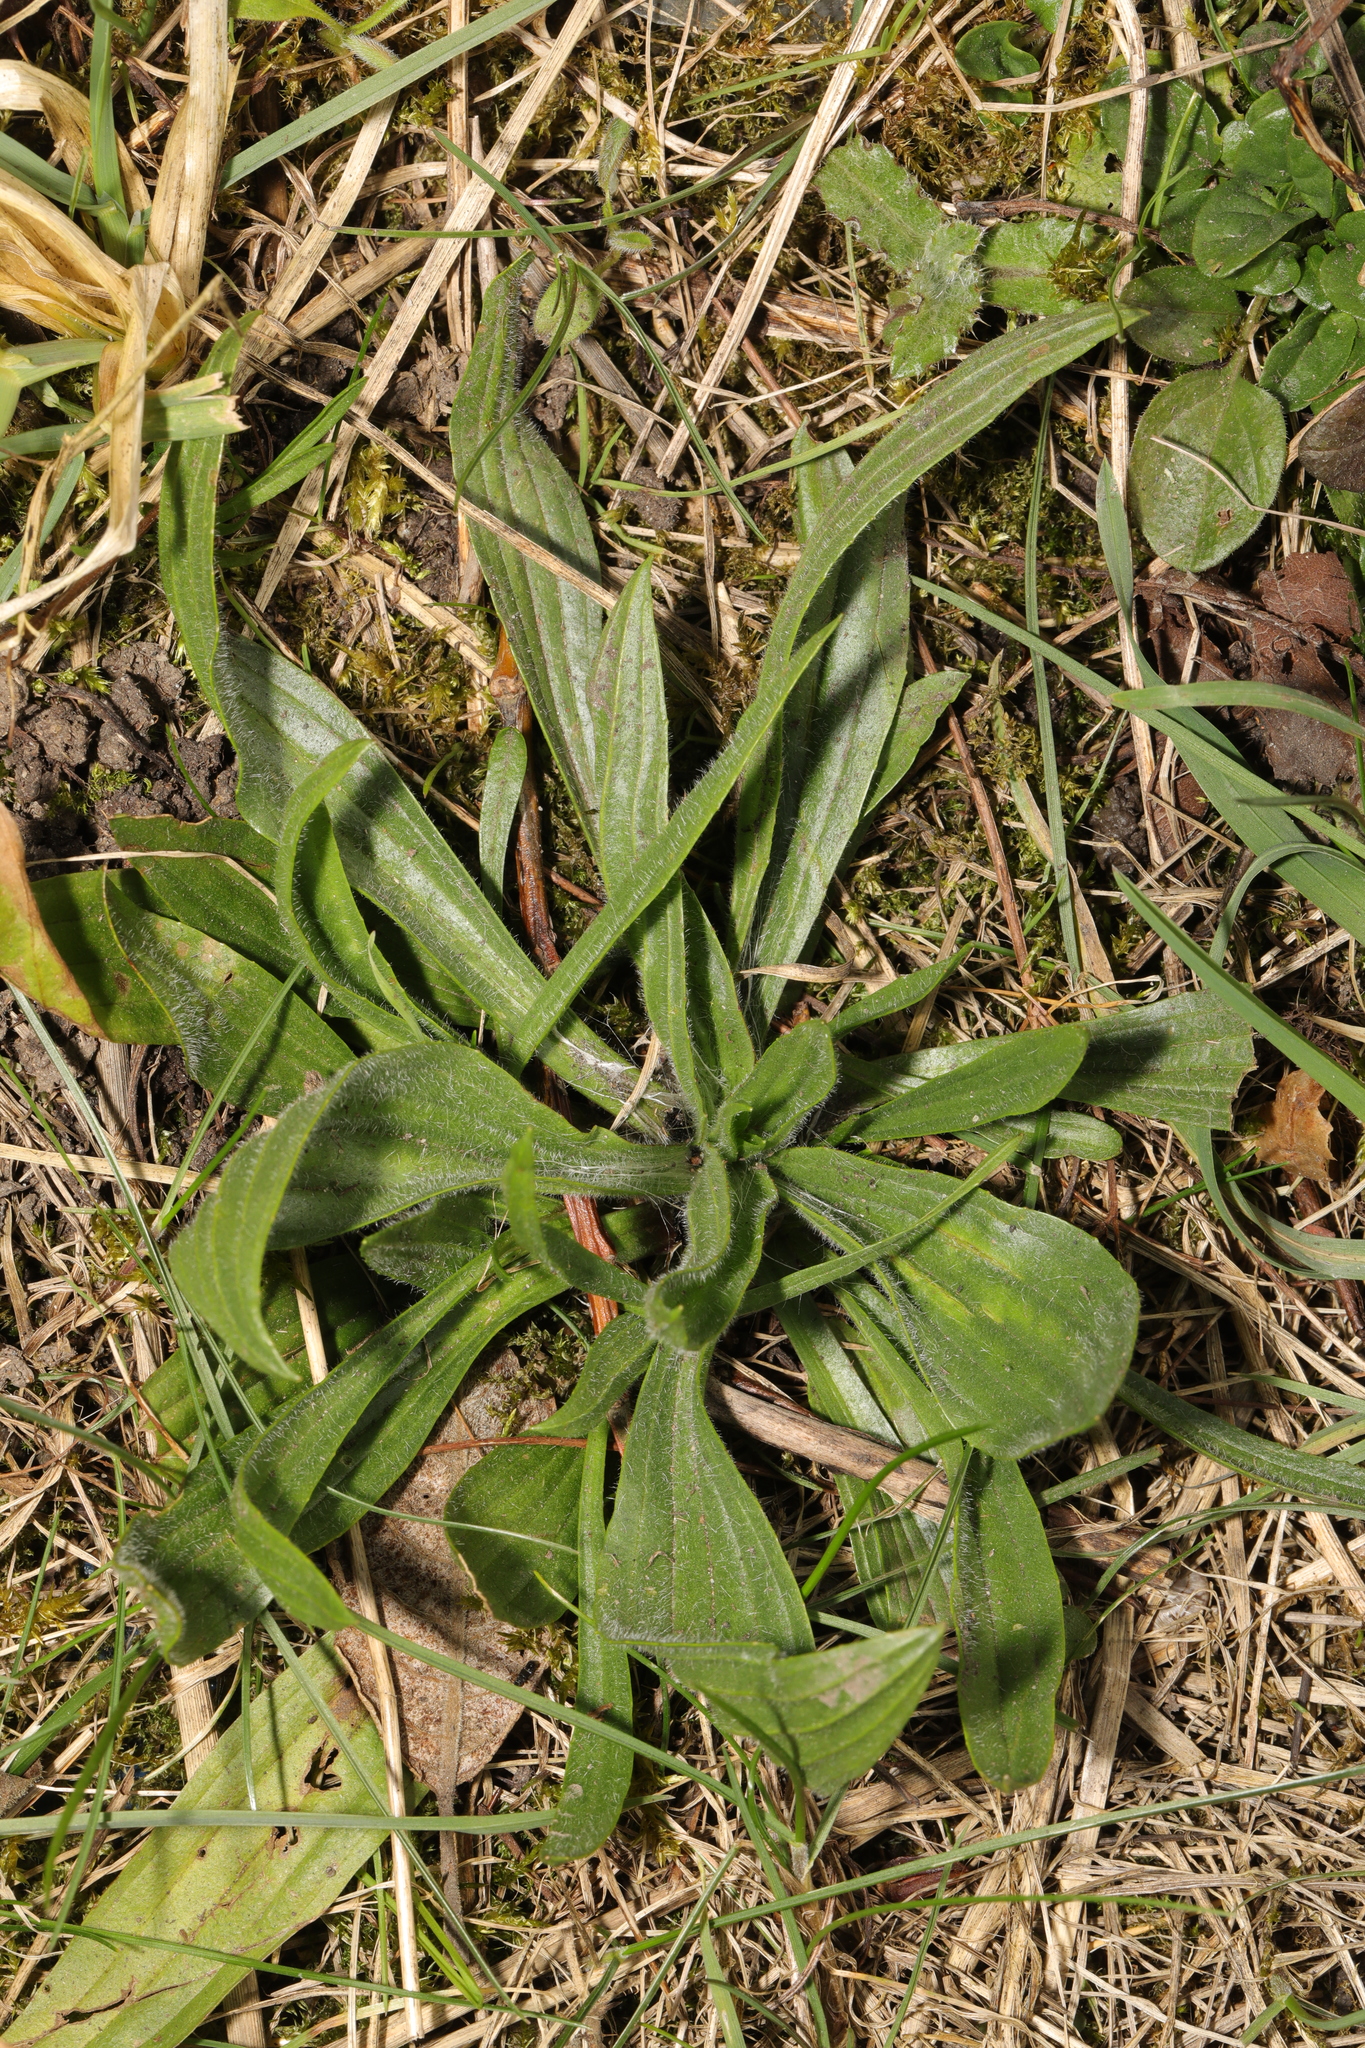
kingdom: Plantae
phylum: Tracheophyta
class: Magnoliopsida
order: Lamiales
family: Plantaginaceae
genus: Plantago
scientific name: Plantago lanceolata
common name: Ribwort plantain
